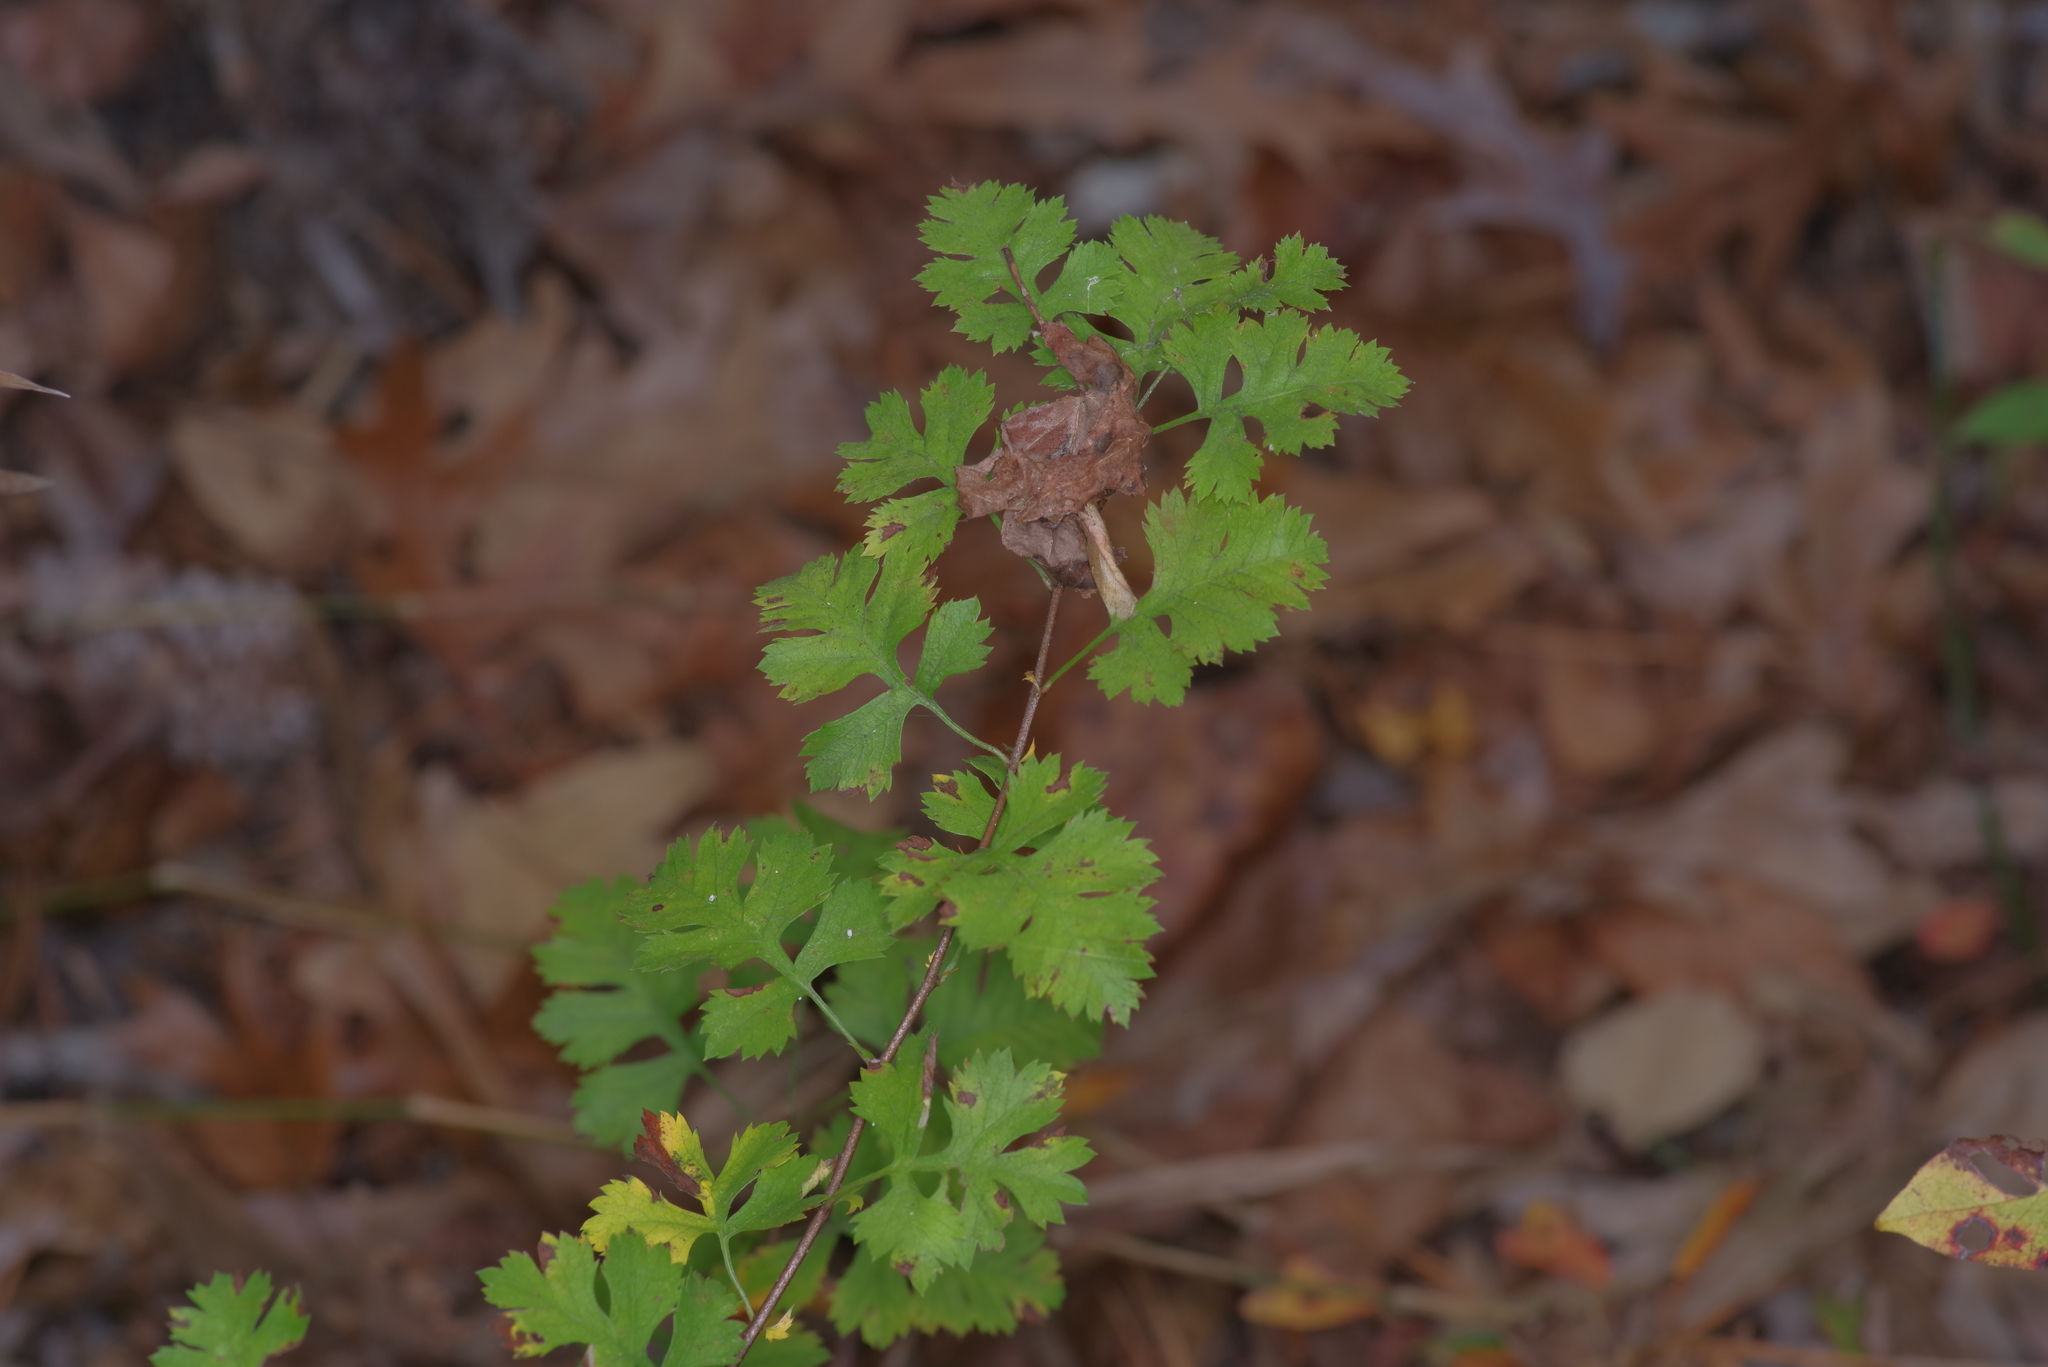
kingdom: Plantae
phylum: Tracheophyta
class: Magnoliopsida
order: Rosales
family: Rosaceae
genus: Crataegus
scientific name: Crataegus marshallii
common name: Parsley-hawthorn
